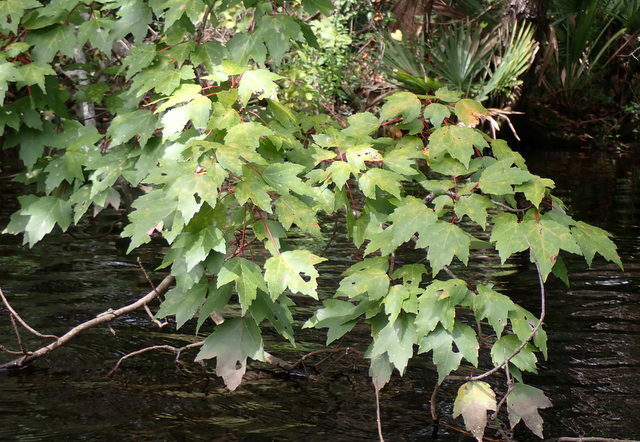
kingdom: Plantae
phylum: Tracheophyta
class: Magnoliopsida
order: Sapindales
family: Sapindaceae
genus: Acer
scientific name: Acer rubrum
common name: Red maple
